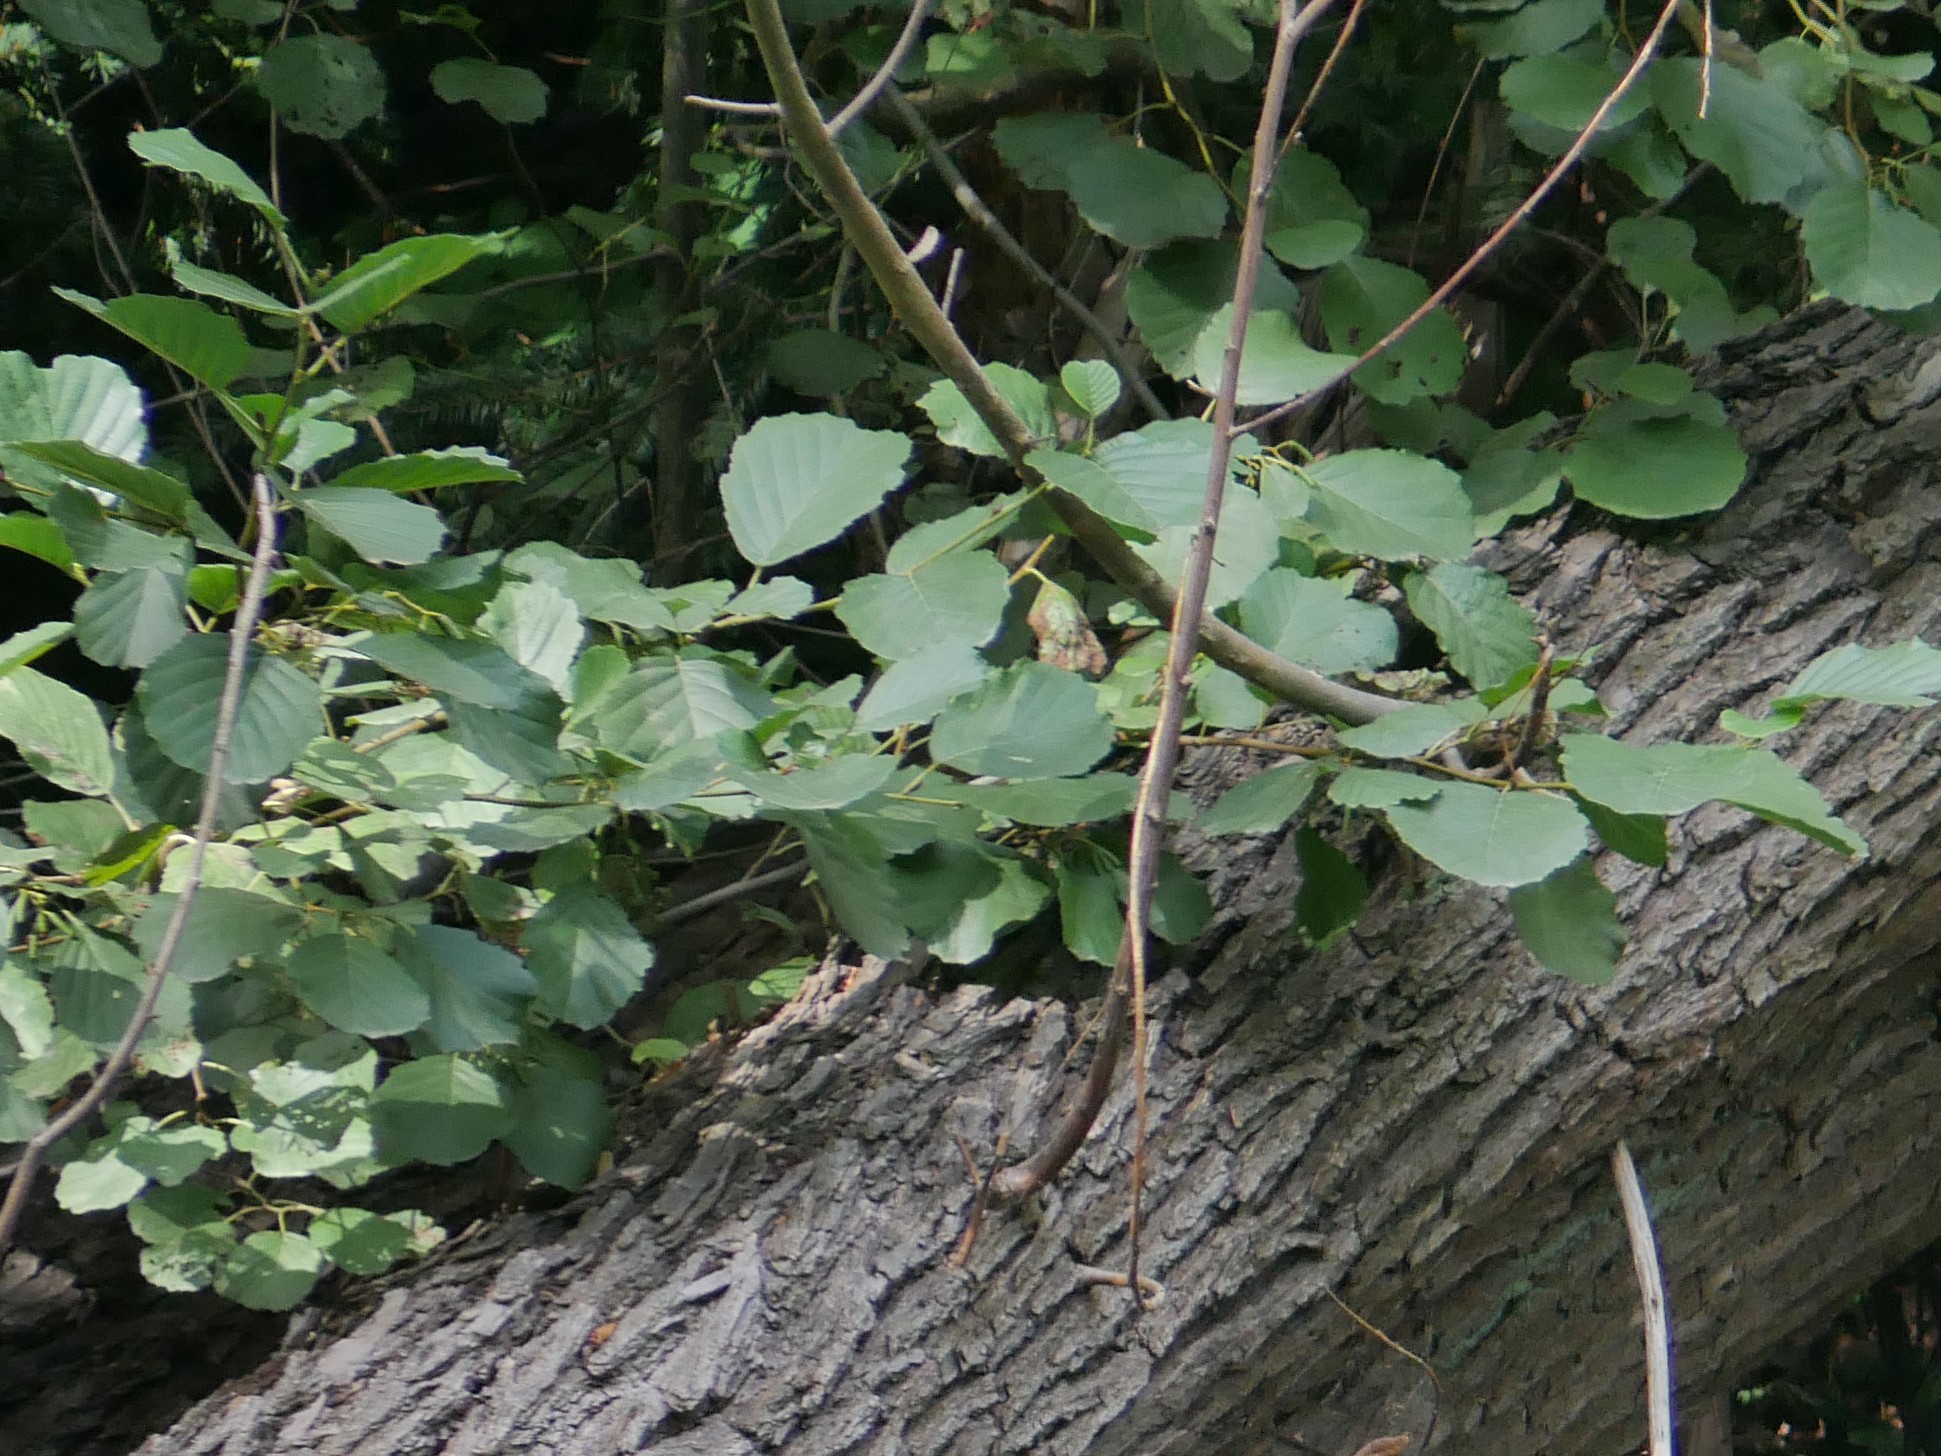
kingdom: Plantae
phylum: Tracheophyta
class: Magnoliopsida
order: Fagales
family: Betulaceae
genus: Alnus
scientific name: Alnus glutinosa
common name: Black alder
